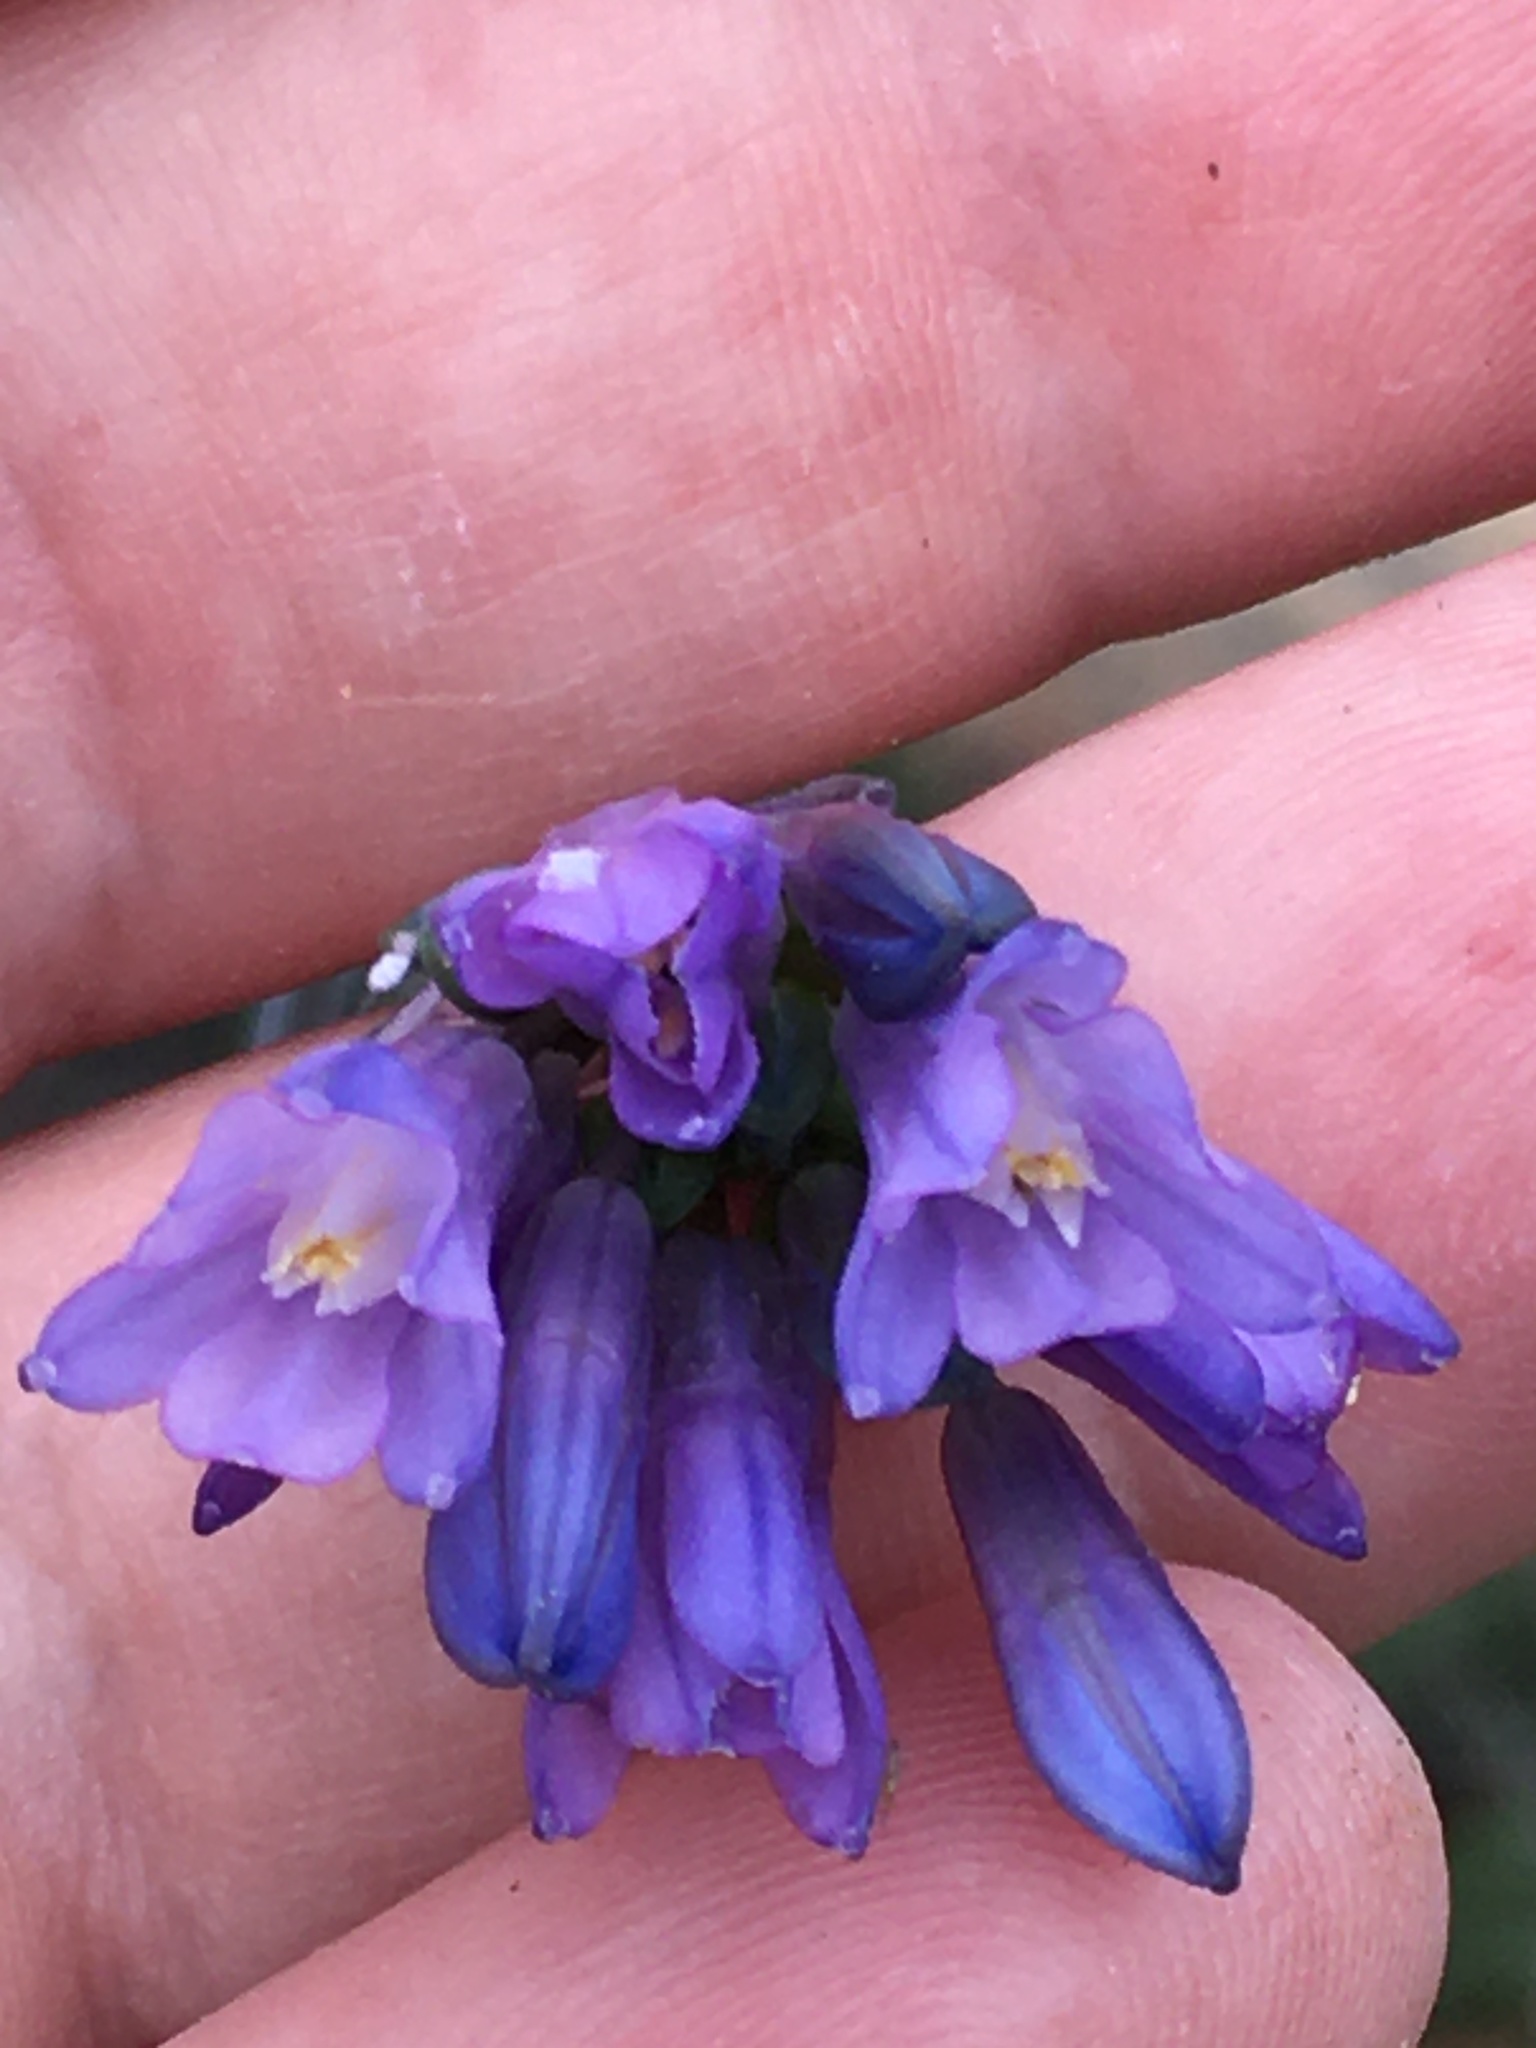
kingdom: Plantae
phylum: Tracheophyta
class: Liliopsida
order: Asparagales
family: Asparagaceae
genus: Dipterostemon
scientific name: Dipterostemon capitatus
